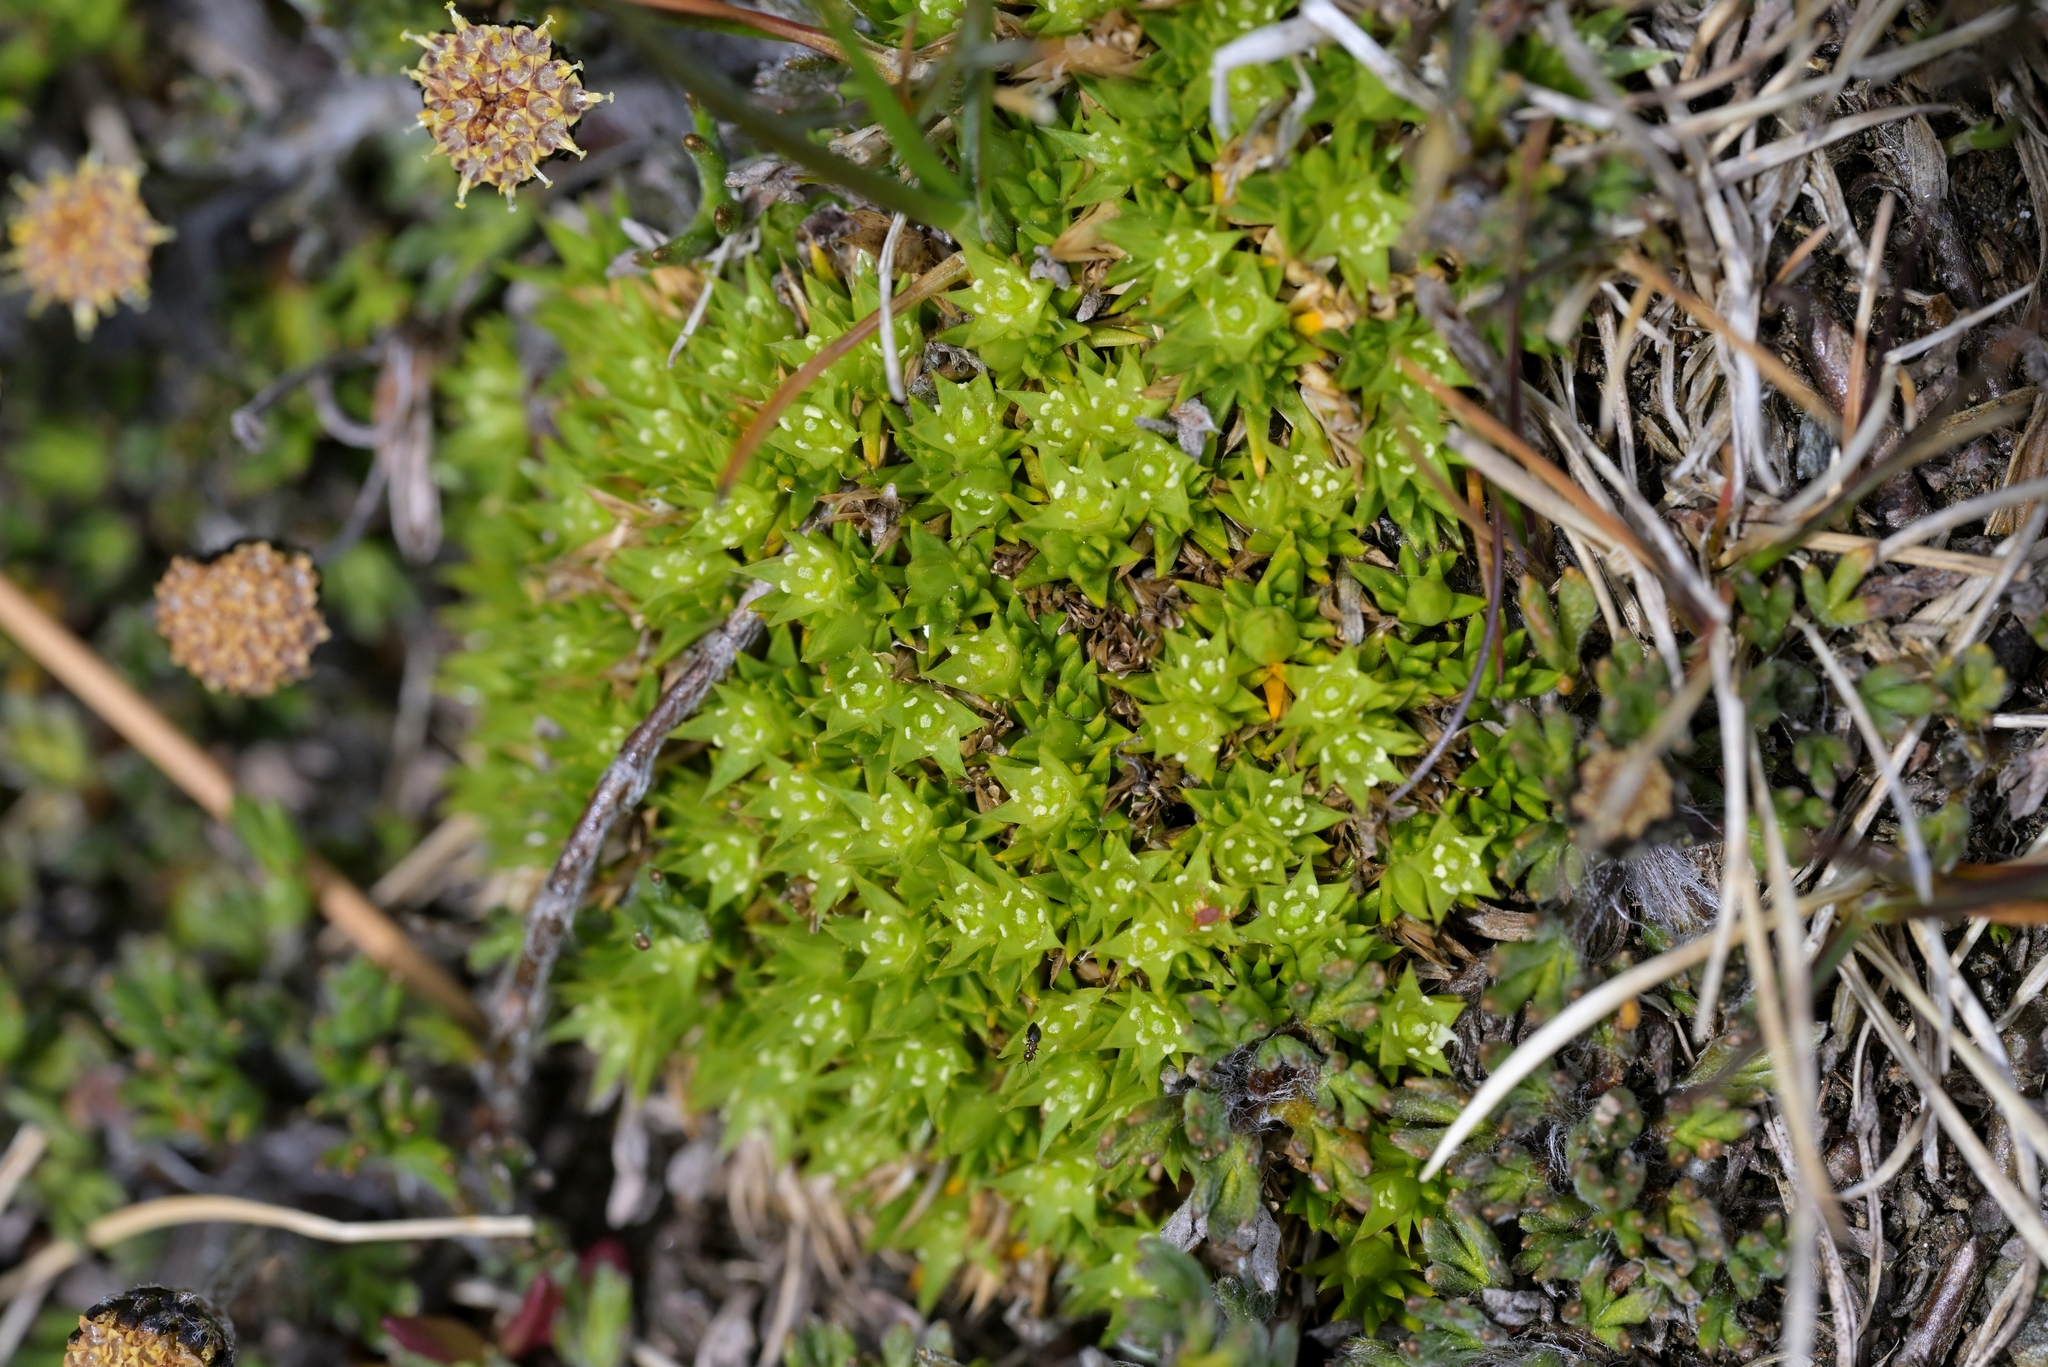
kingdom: Plantae
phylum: Tracheophyta
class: Magnoliopsida
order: Caryophyllales
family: Caryophyllaceae
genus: Colobanthus
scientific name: Colobanthus buchananii
